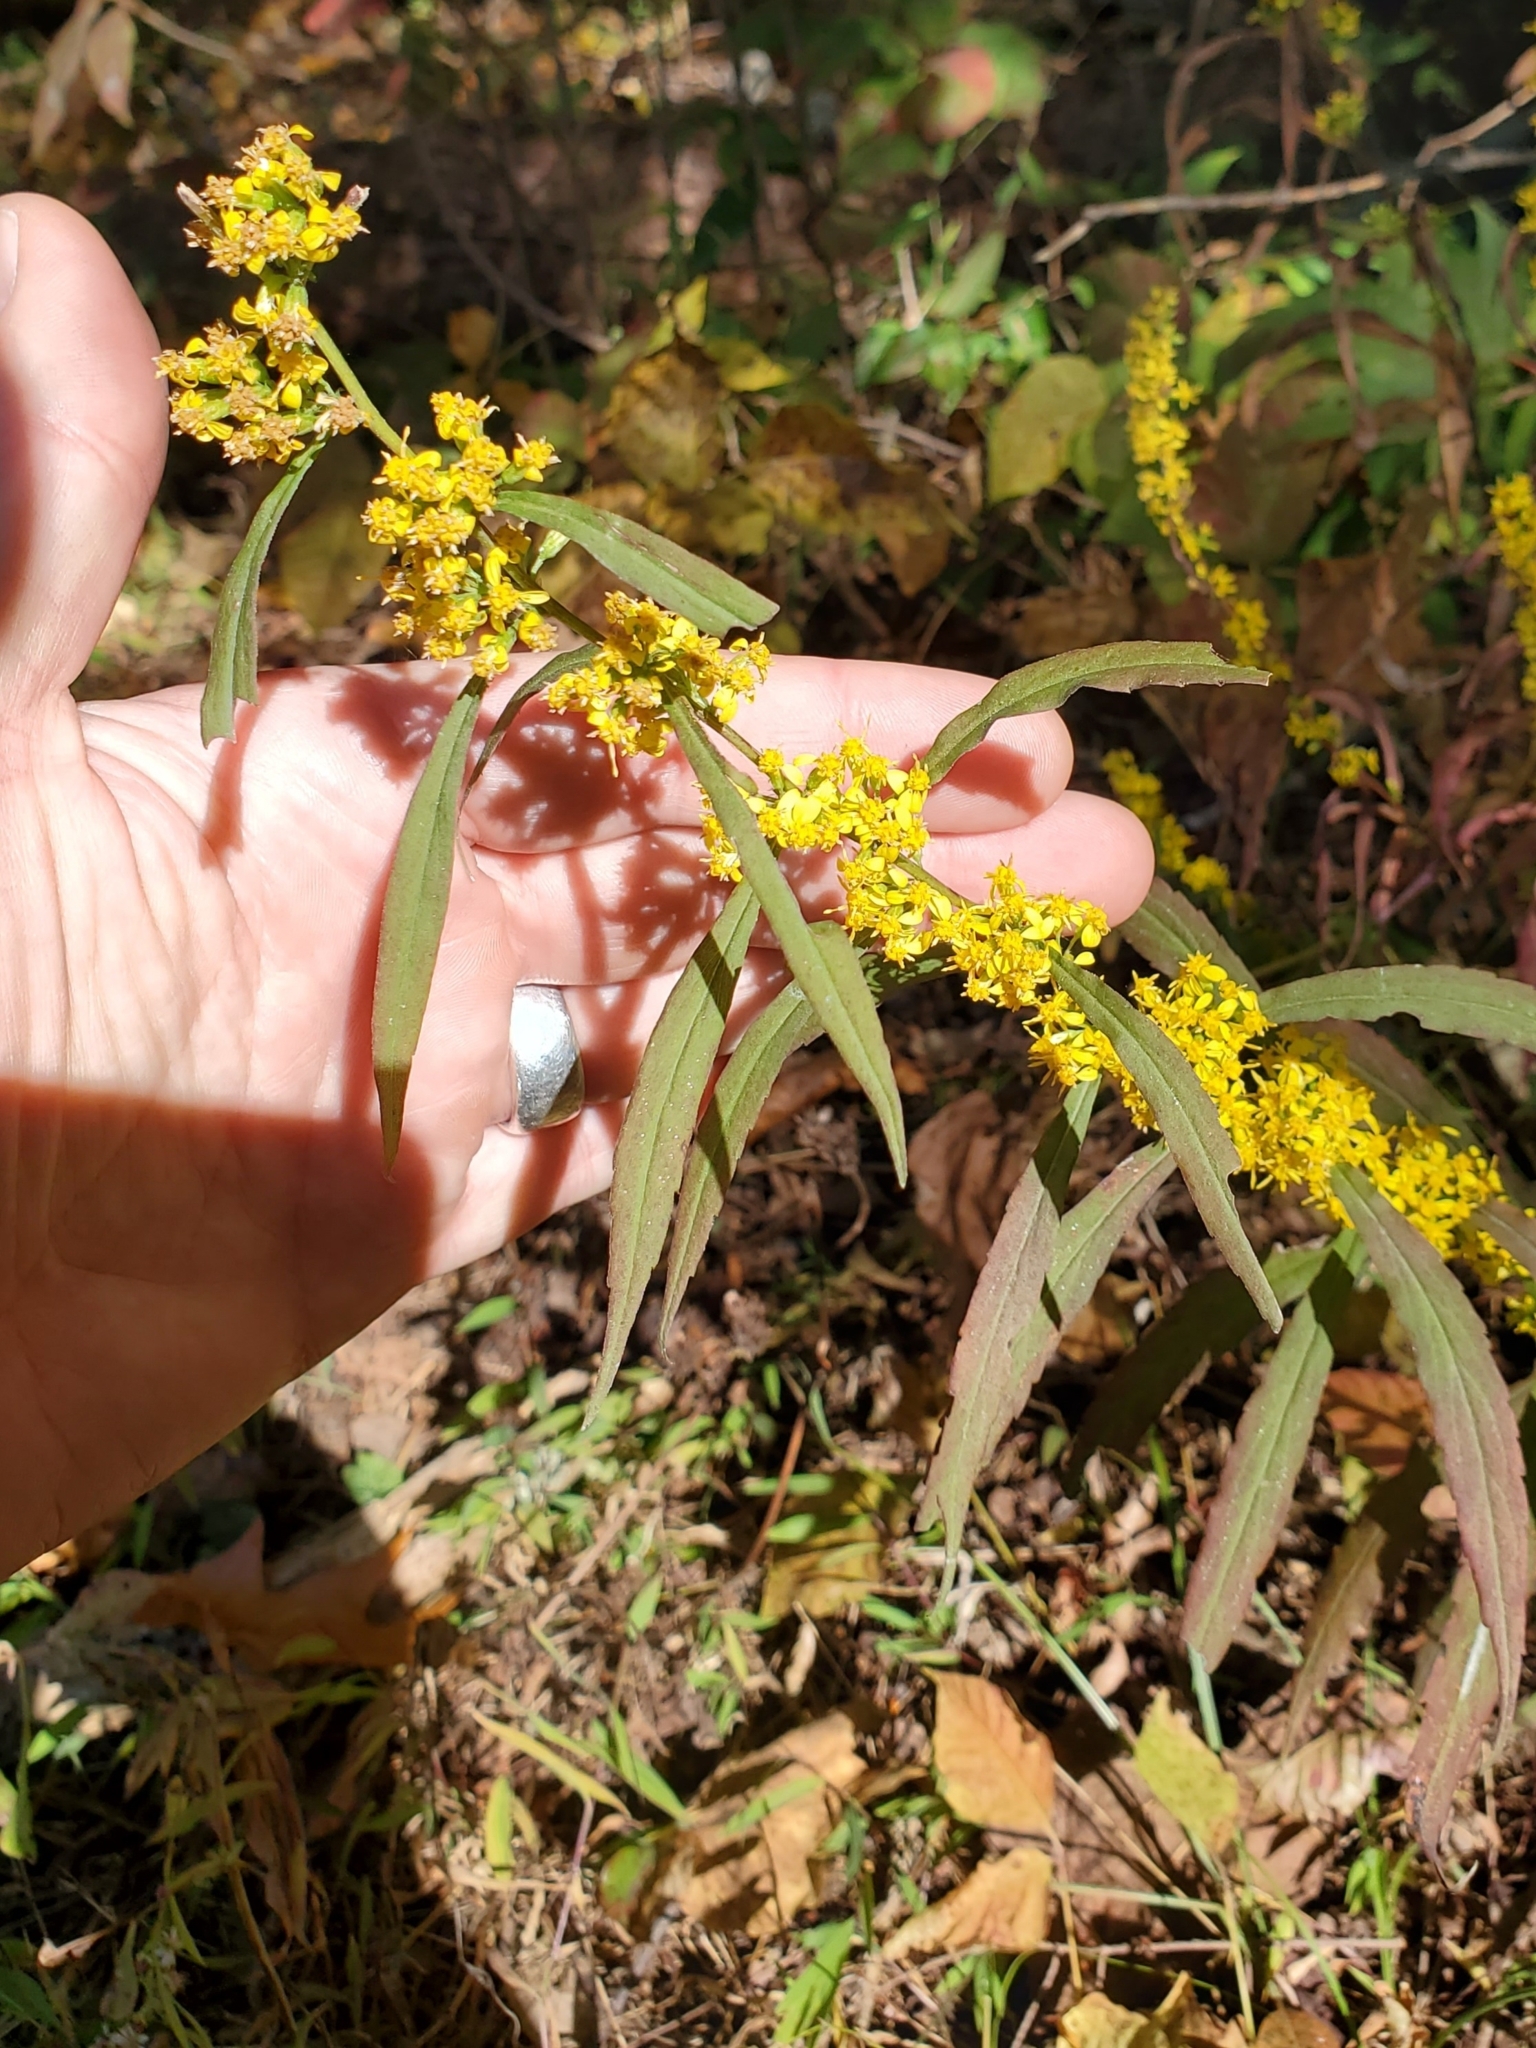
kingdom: Plantae
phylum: Tracheophyta
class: Magnoliopsida
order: Asterales
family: Asteraceae
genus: Solidago
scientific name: Solidago caesia
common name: Woodland goldenrod
